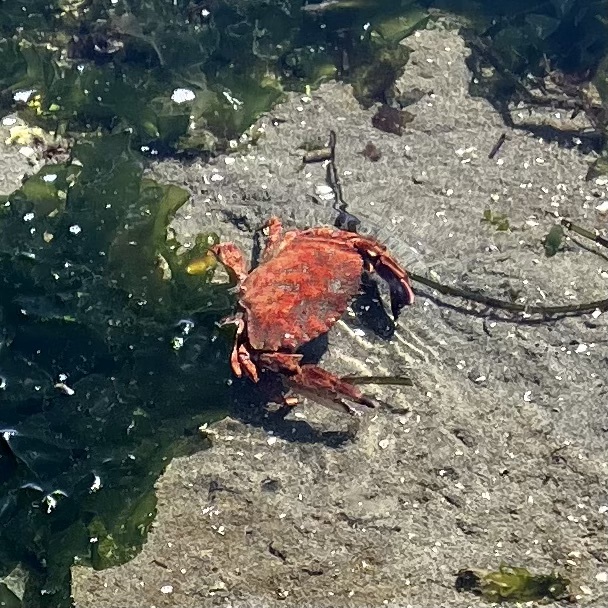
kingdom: Animalia
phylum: Arthropoda
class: Malacostraca
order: Decapoda
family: Cancridae
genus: Cancer
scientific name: Cancer productus
